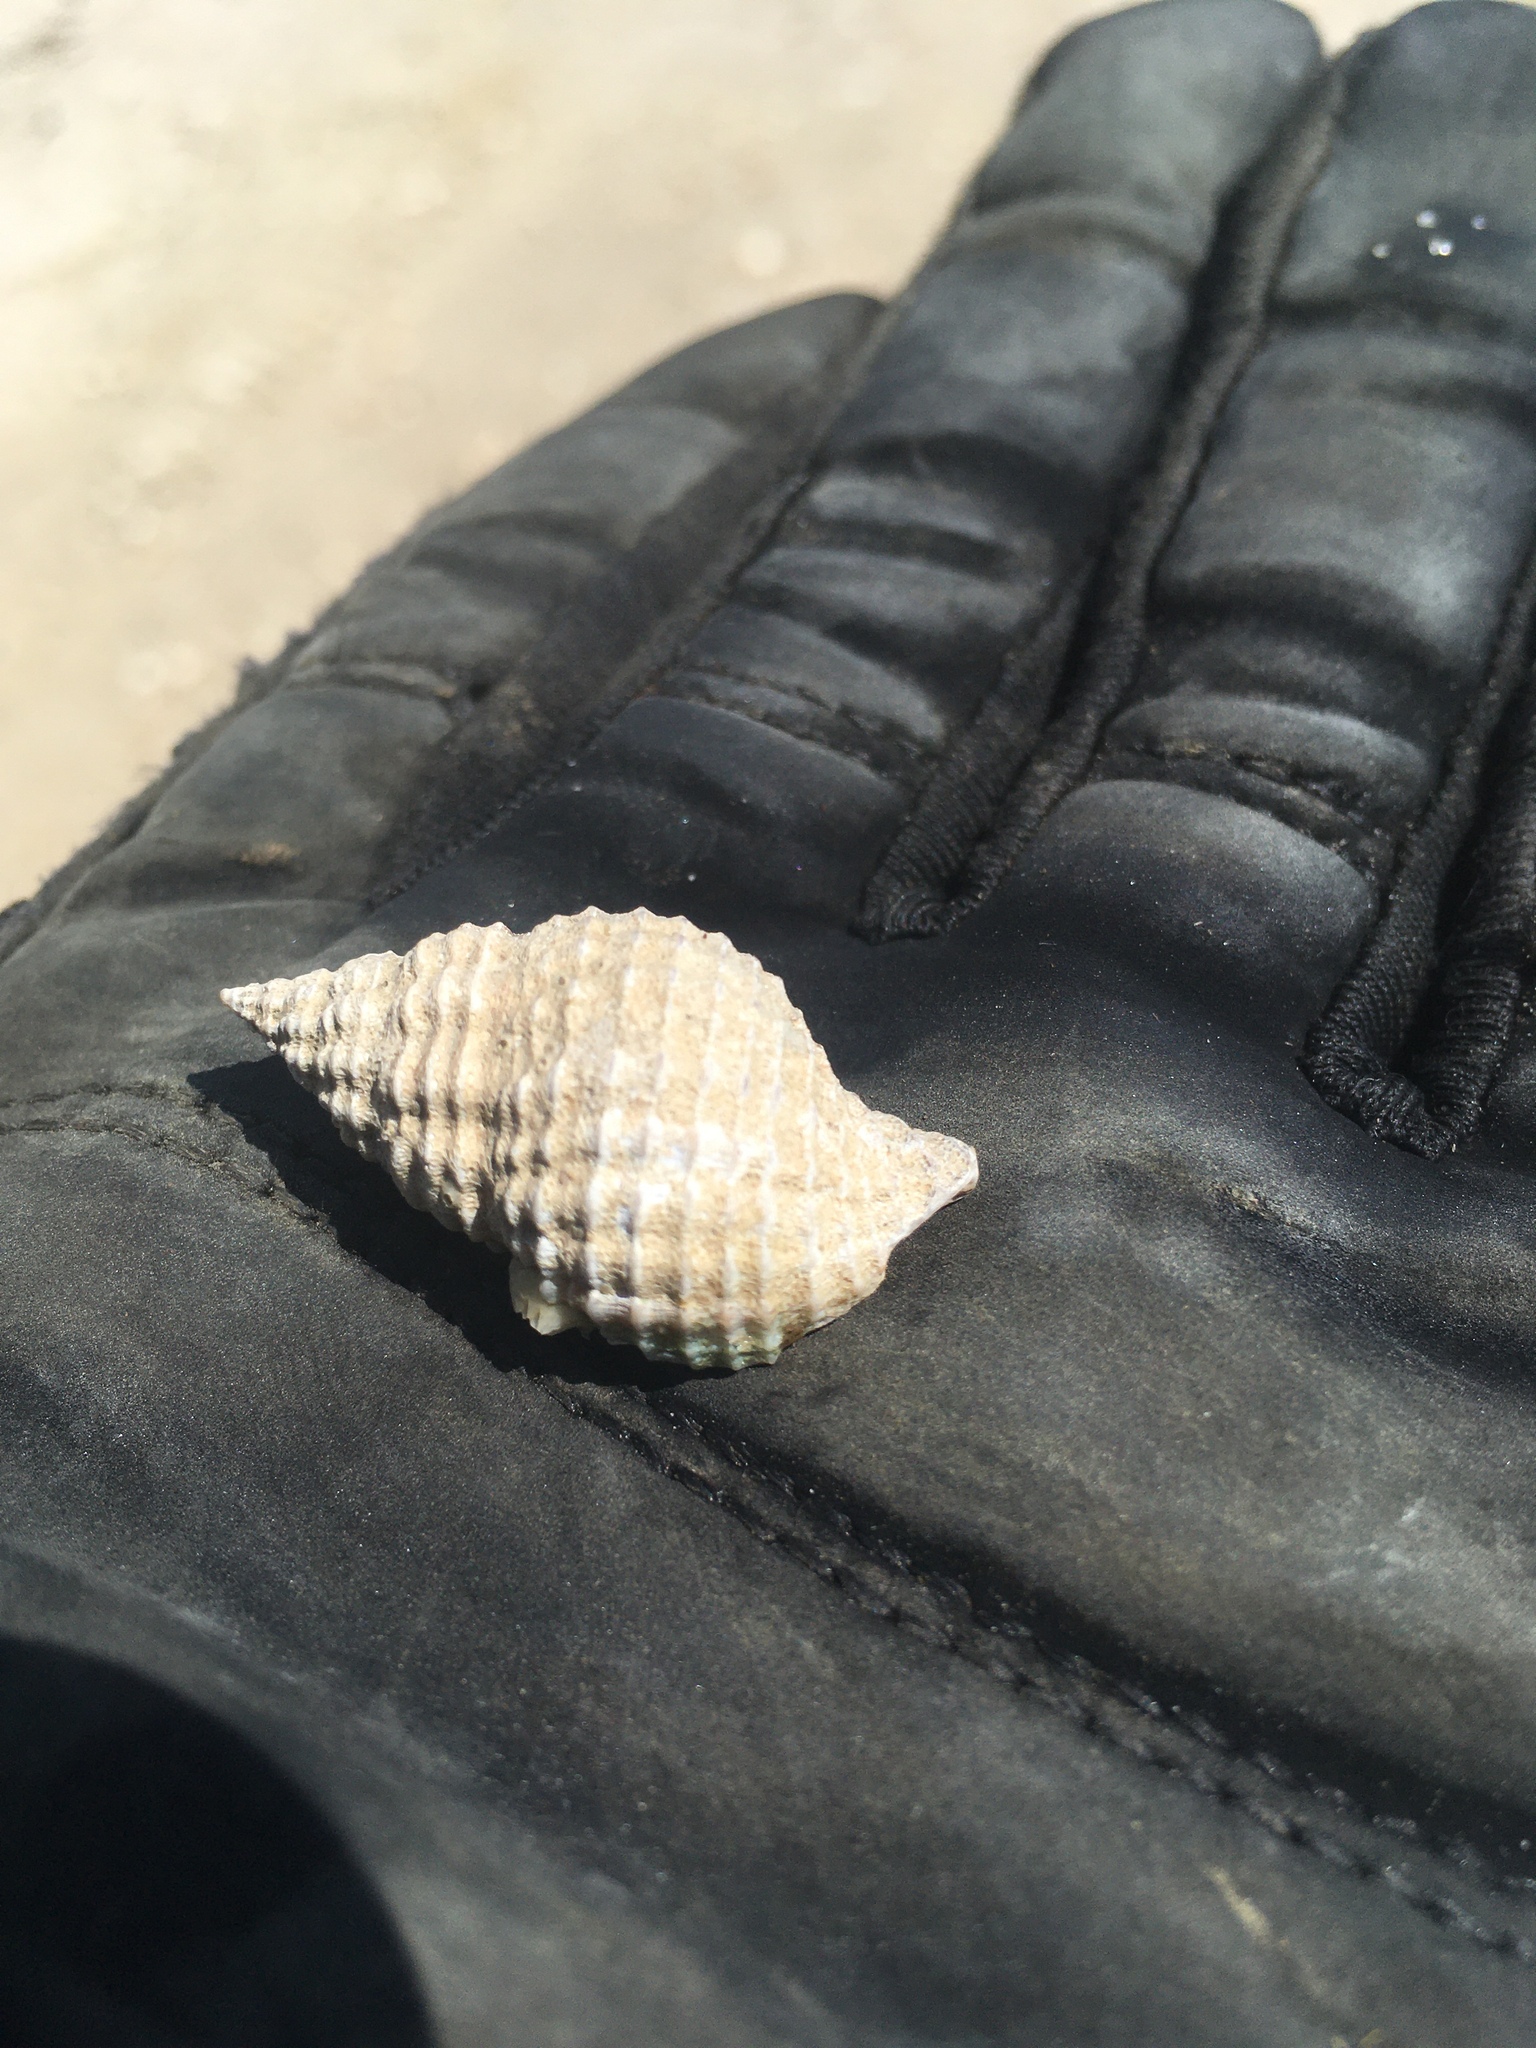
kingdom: Animalia
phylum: Mollusca
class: Gastropoda
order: Neogastropoda
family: Pisaniidae
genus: Solenosteira
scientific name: Solenosteira cancellaria
